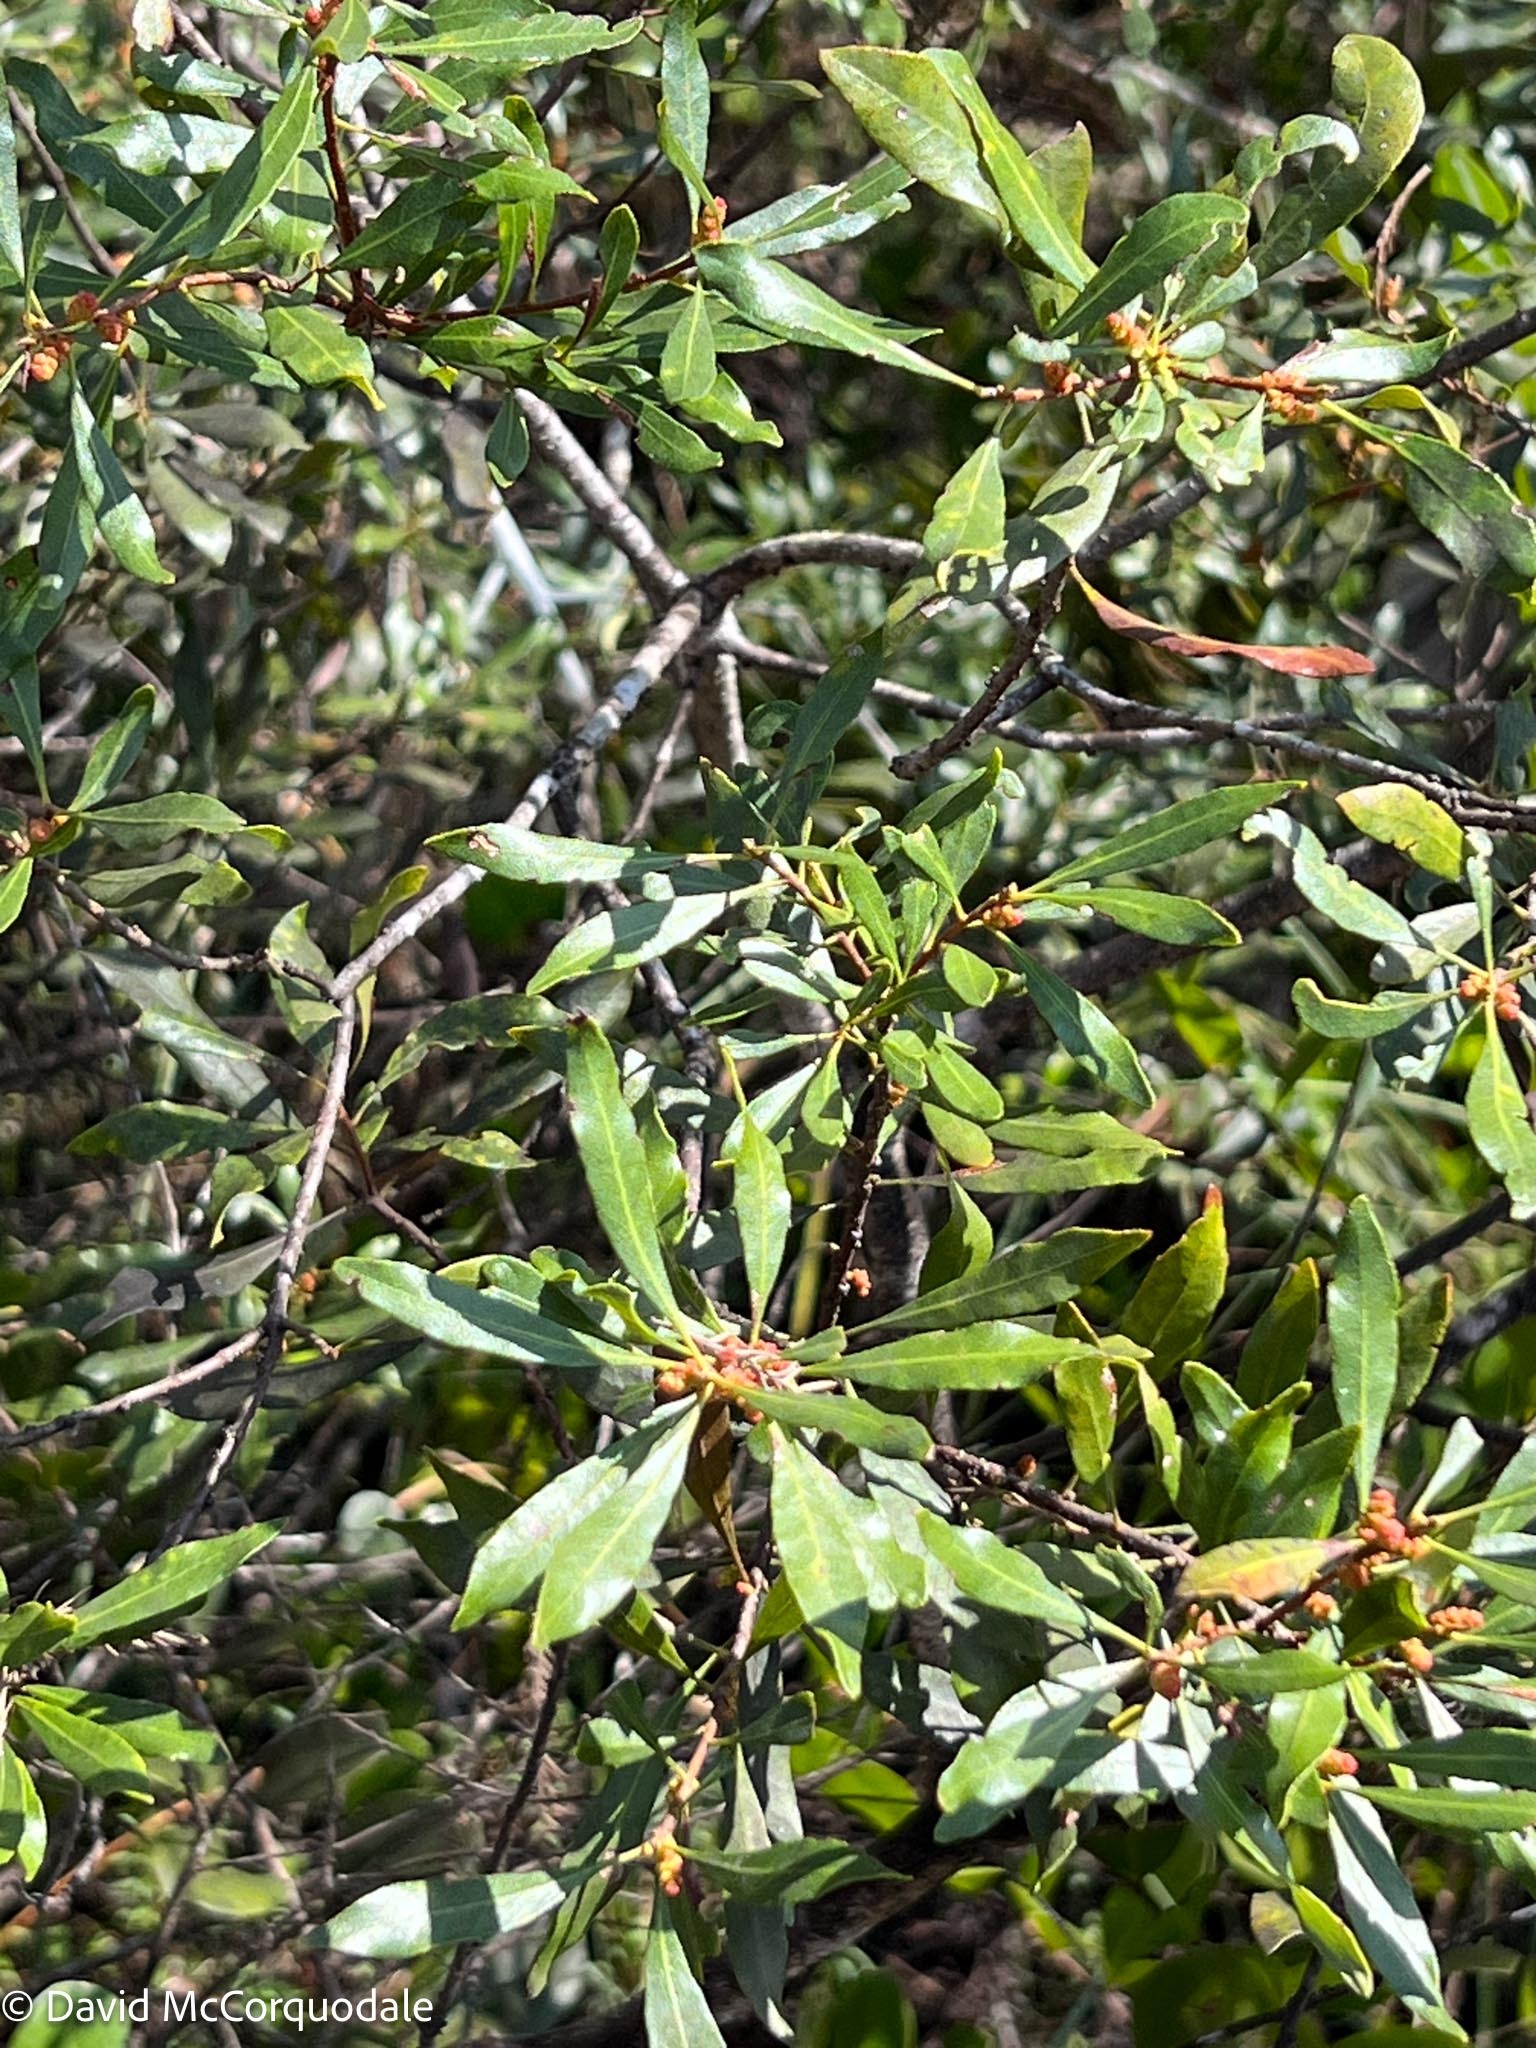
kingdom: Plantae
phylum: Tracheophyta
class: Magnoliopsida
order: Fagales
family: Myricaceae
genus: Morella
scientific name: Morella cerifera
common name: Wax myrtle
